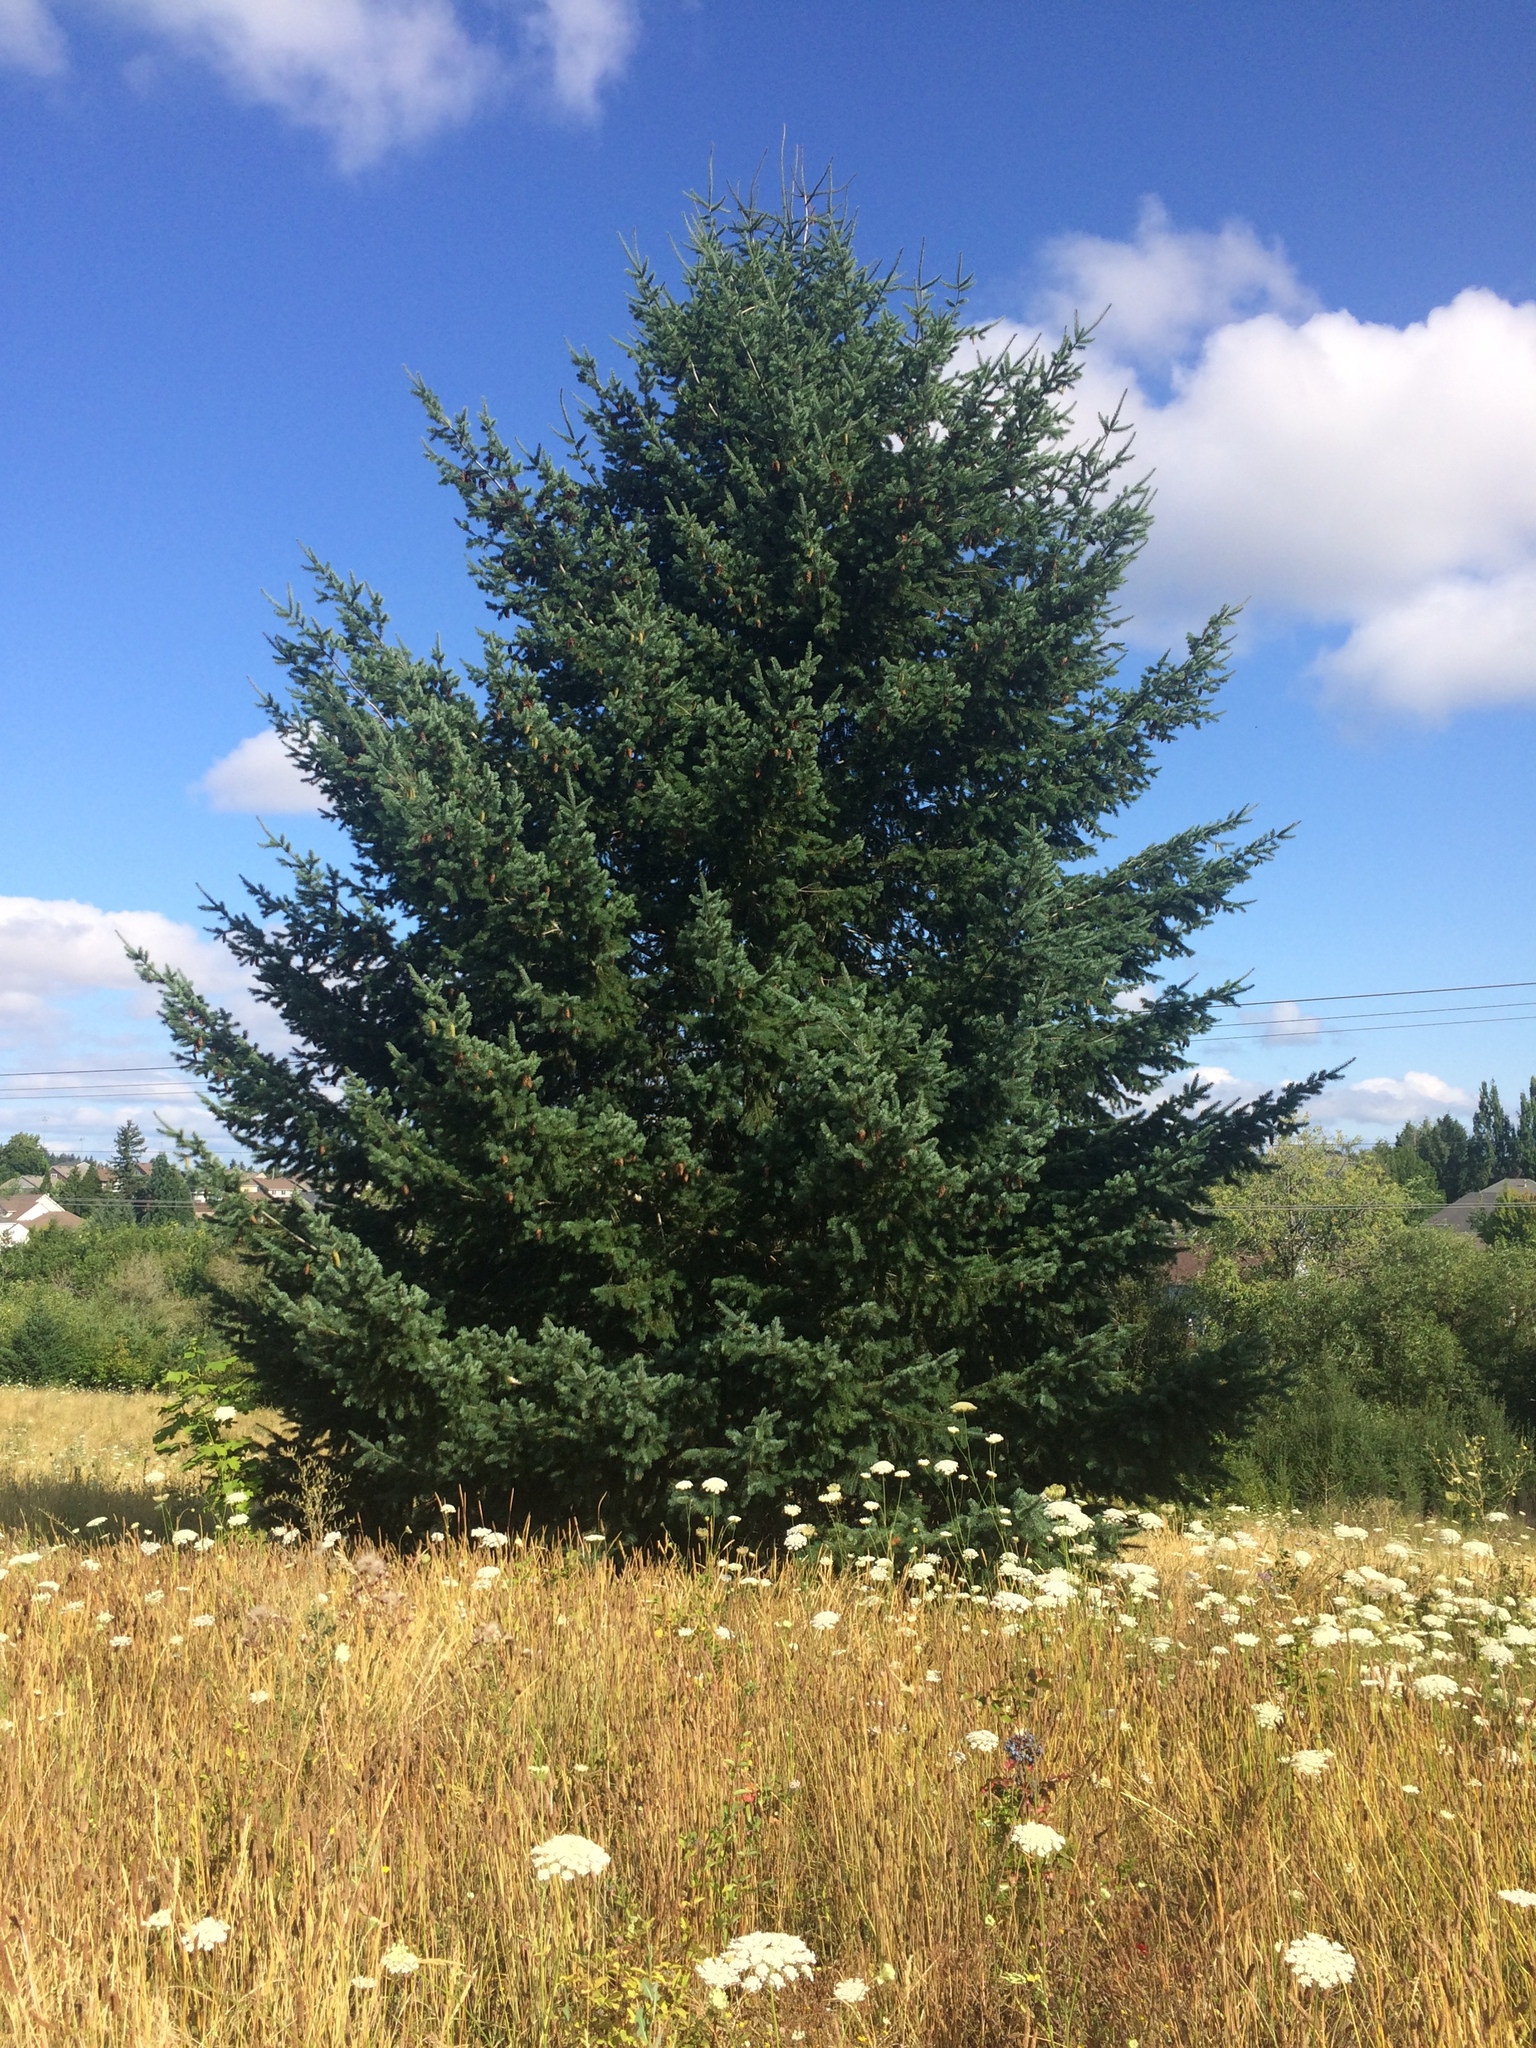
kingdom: Plantae
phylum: Tracheophyta
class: Pinopsida
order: Pinales
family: Pinaceae
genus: Pseudotsuga
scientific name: Pseudotsuga menziesii
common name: Douglas fir
